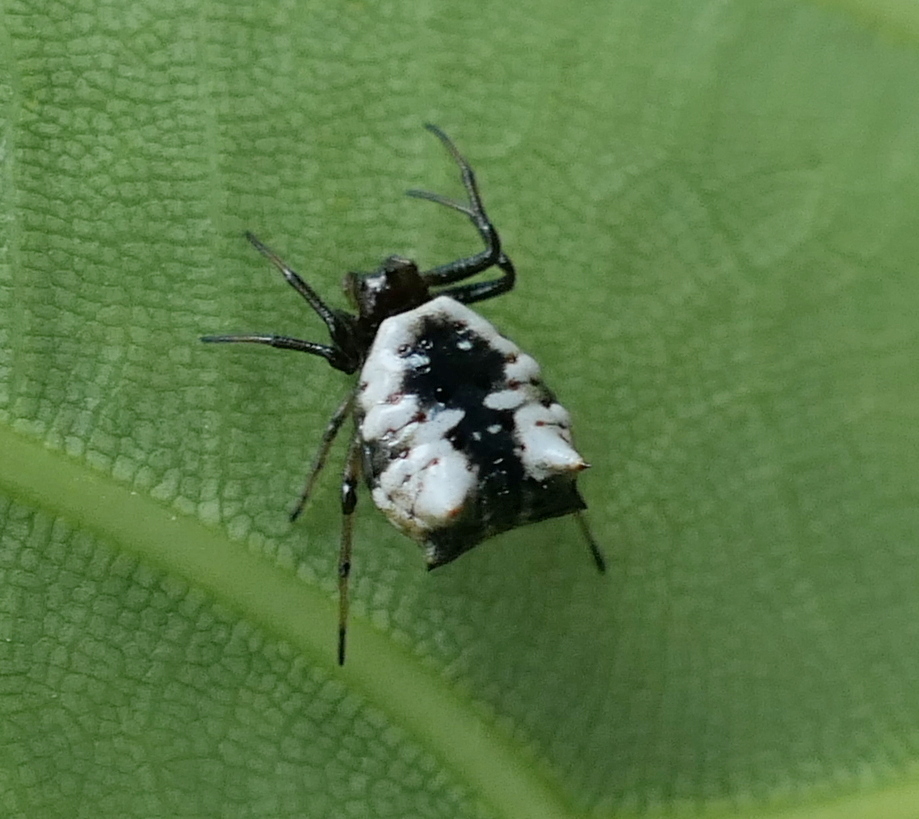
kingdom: Animalia
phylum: Arthropoda
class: Arachnida
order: Araneae
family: Araneidae
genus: Micrathena
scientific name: Micrathena patruelis
